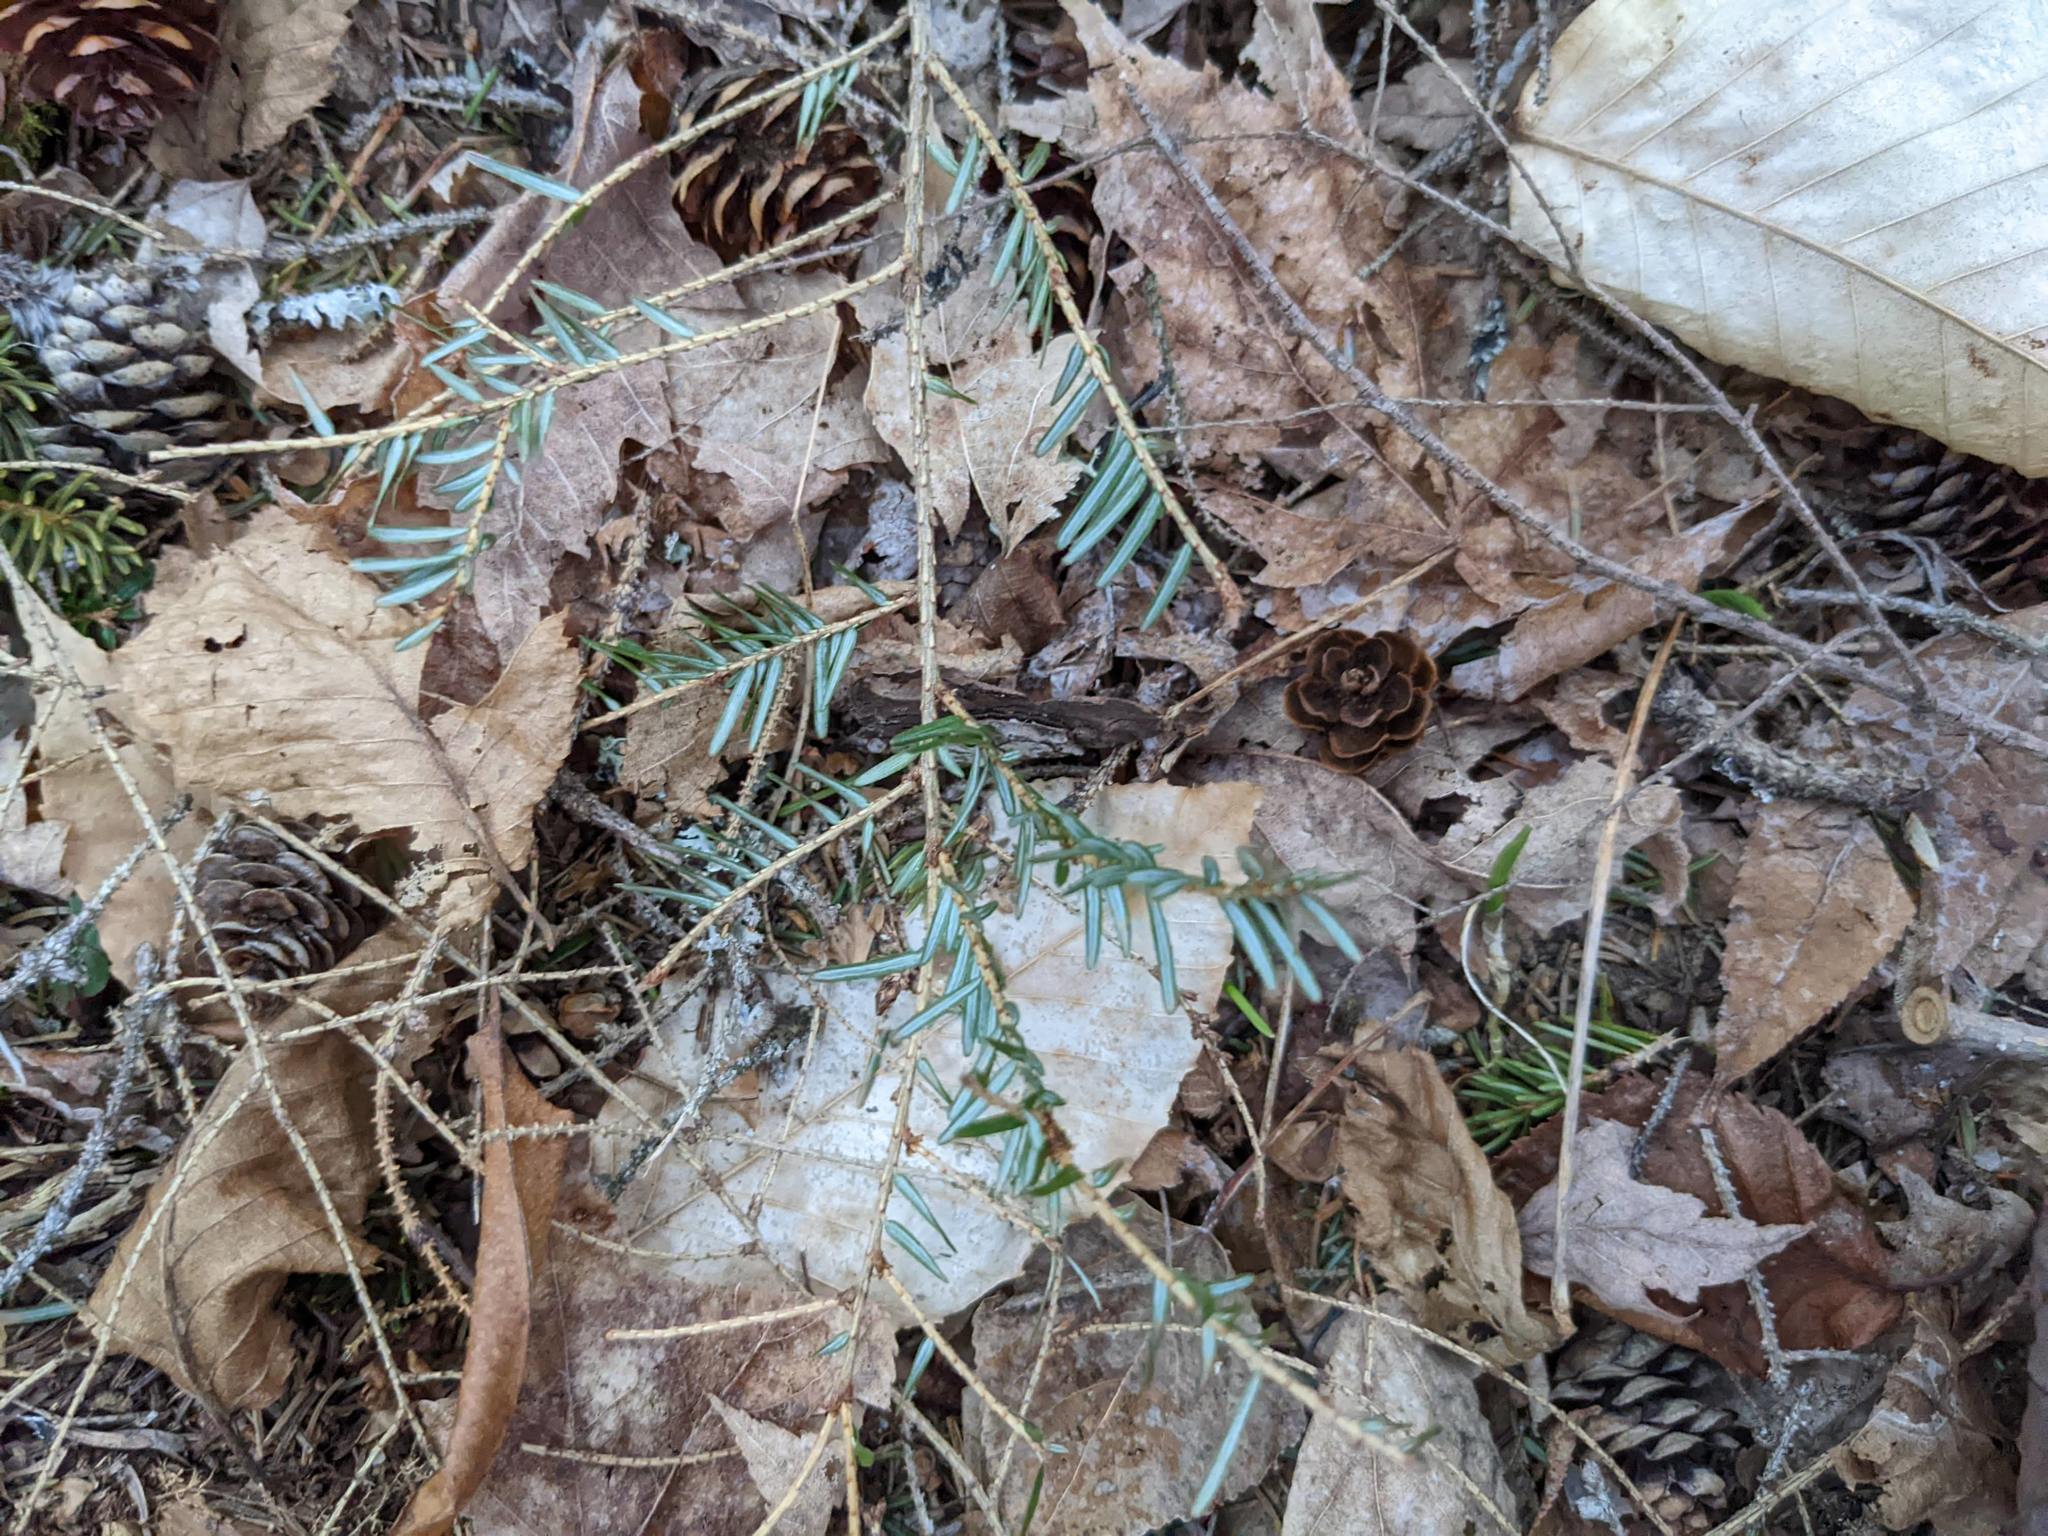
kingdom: Plantae
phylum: Tracheophyta
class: Pinopsida
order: Pinales
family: Pinaceae
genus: Tsuga
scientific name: Tsuga canadensis
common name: Eastern hemlock
